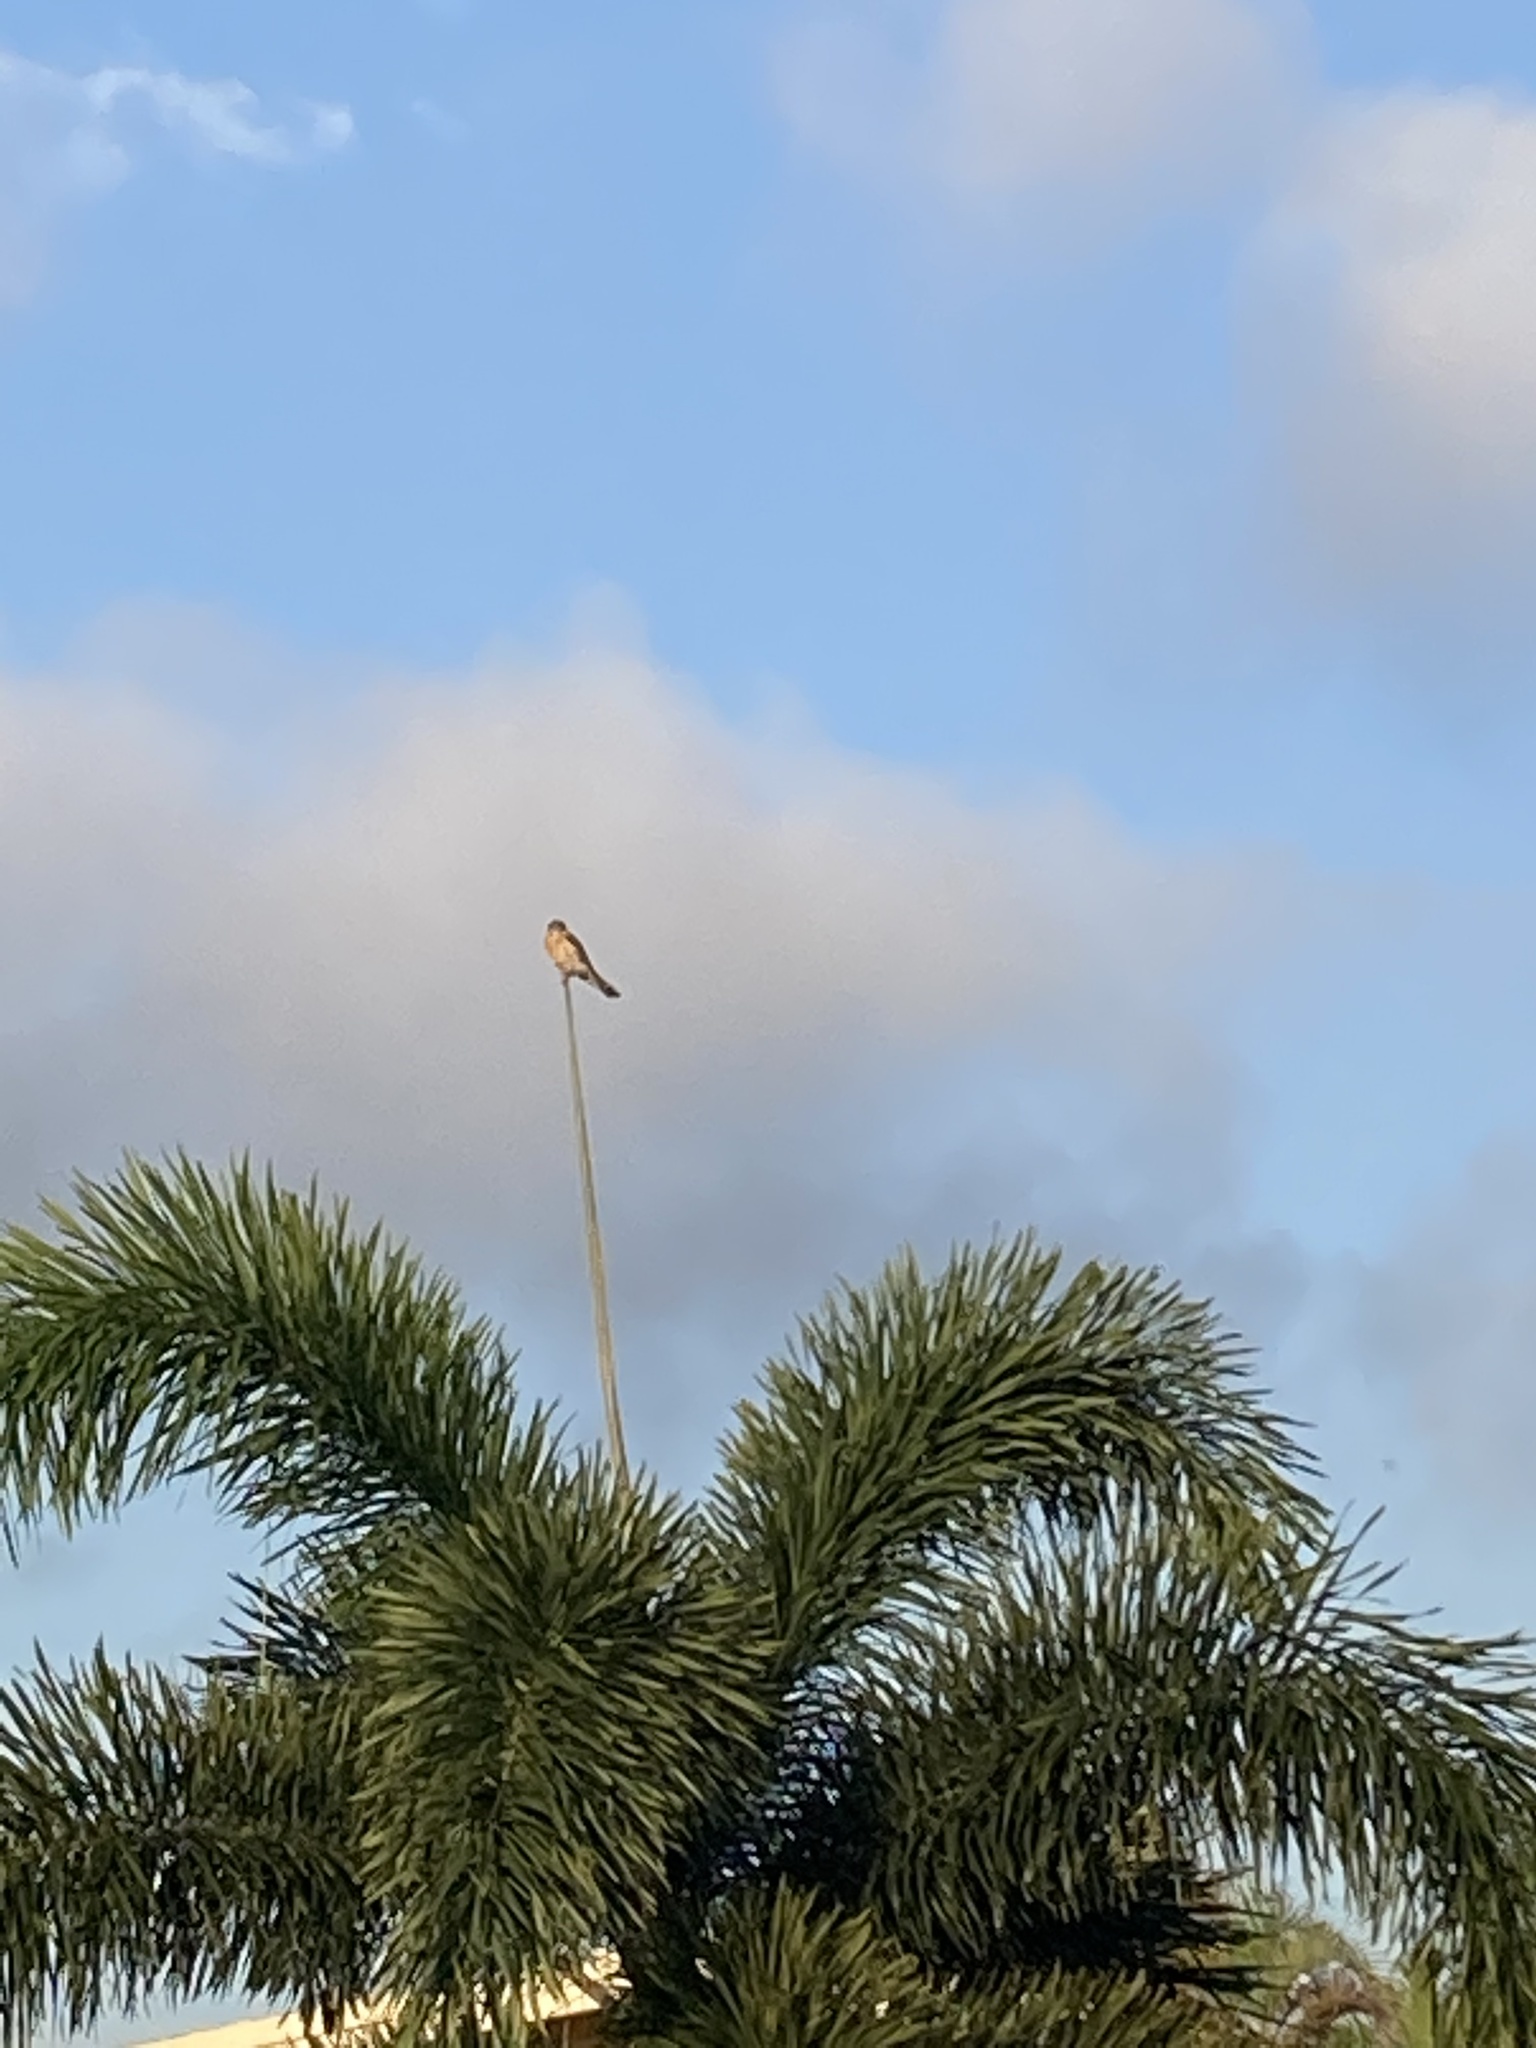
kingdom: Animalia
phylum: Chordata
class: Aves
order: Falconiformes
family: Falconidae
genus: Falco
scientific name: Falco sparverius
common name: American kestrel
